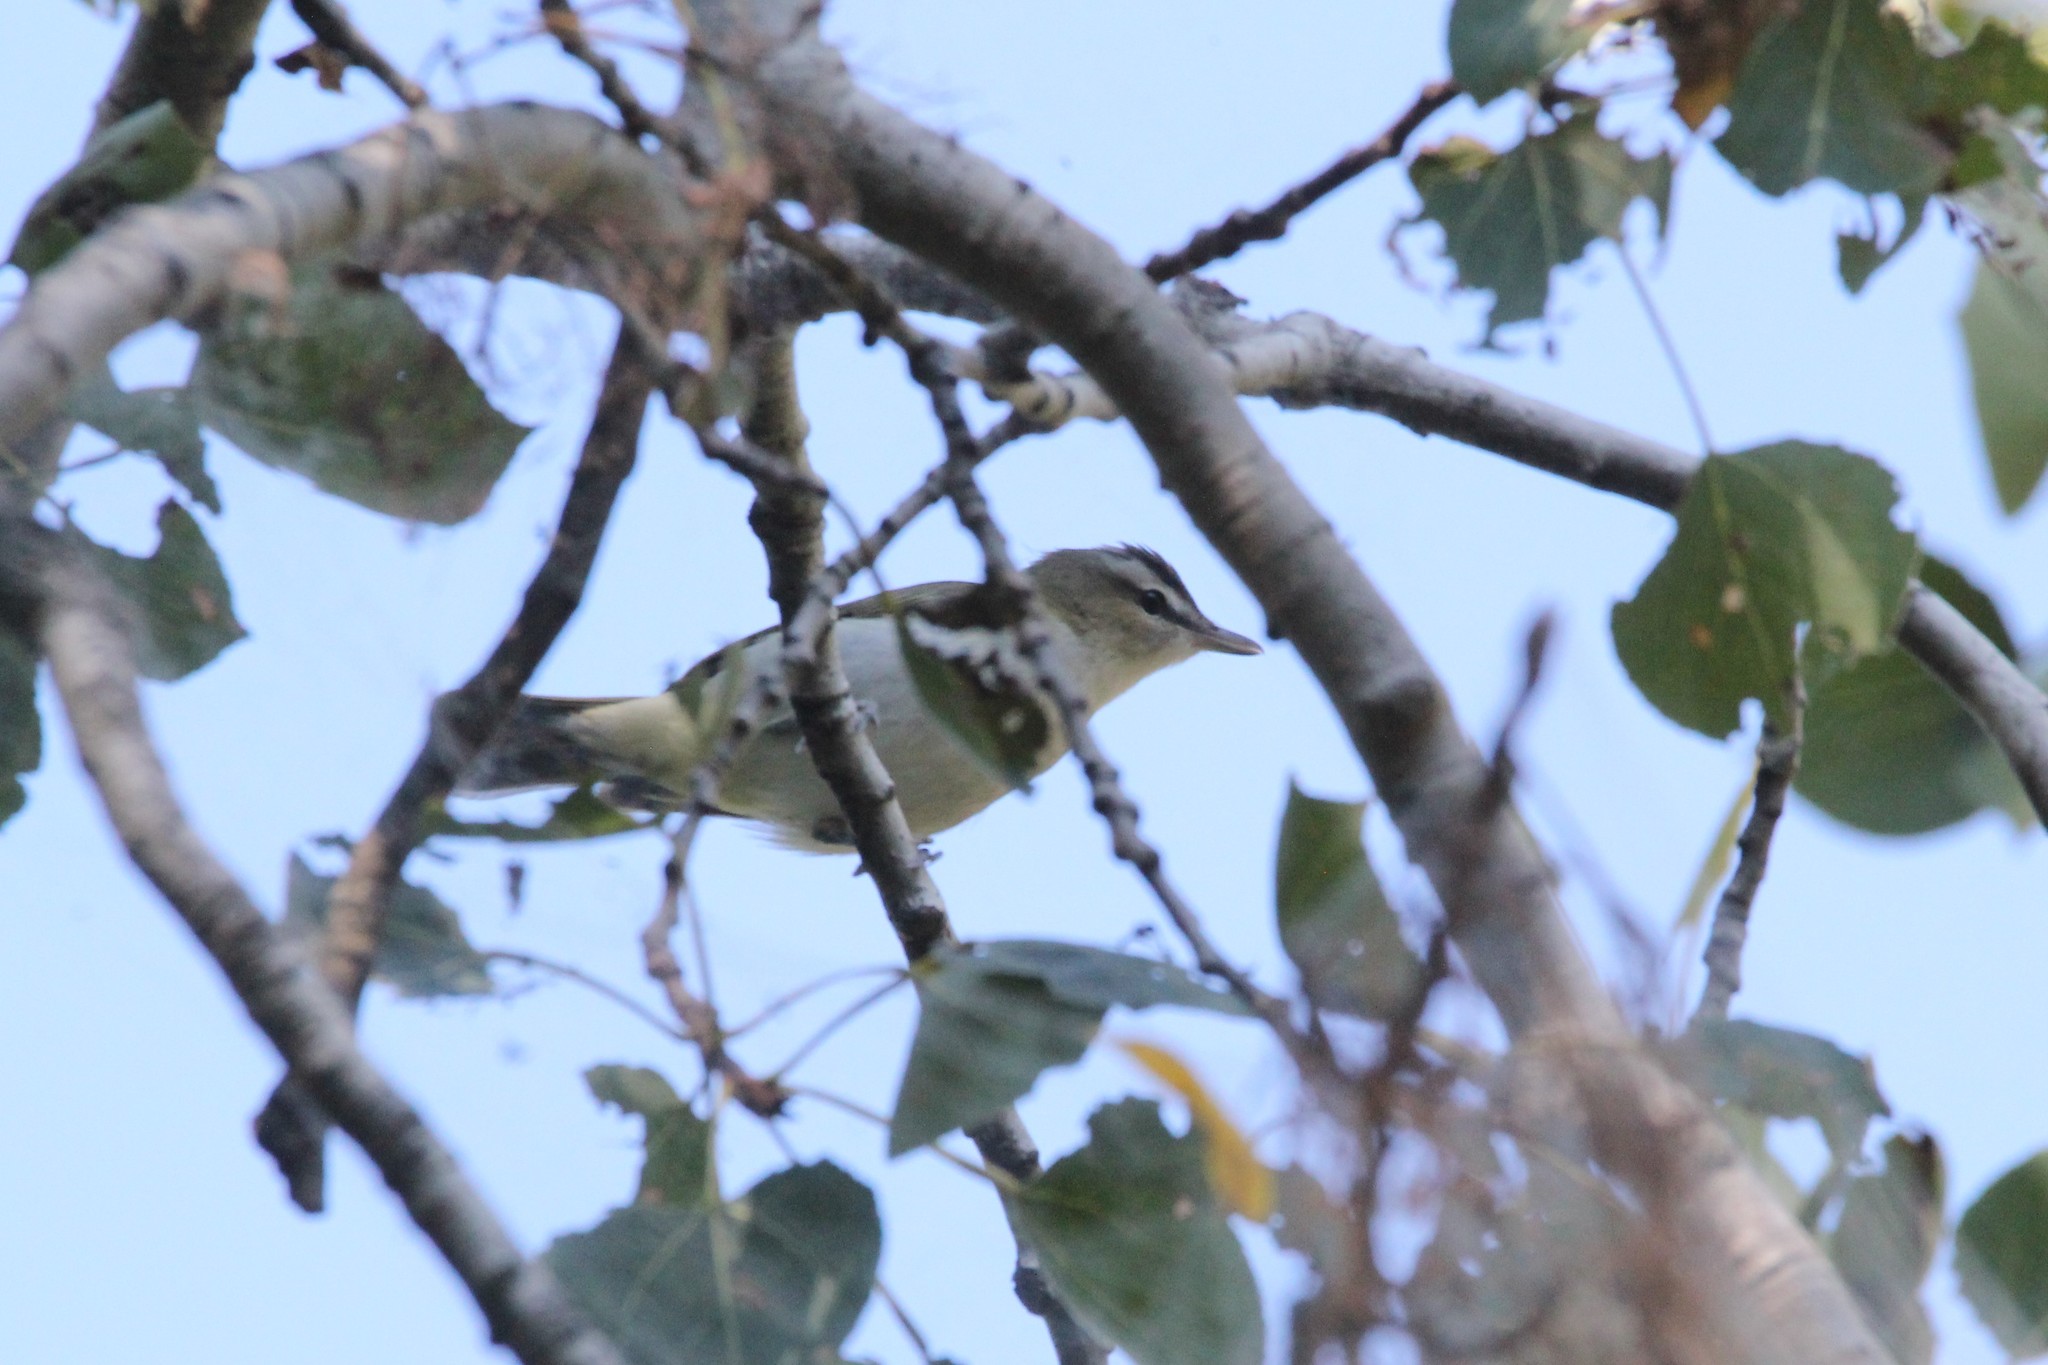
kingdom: Animalia
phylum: Chordata
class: Aves
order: Passeriformes
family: Vireonidae
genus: Vireo
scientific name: Vireo olivaceus
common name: Red-eyed vireo
